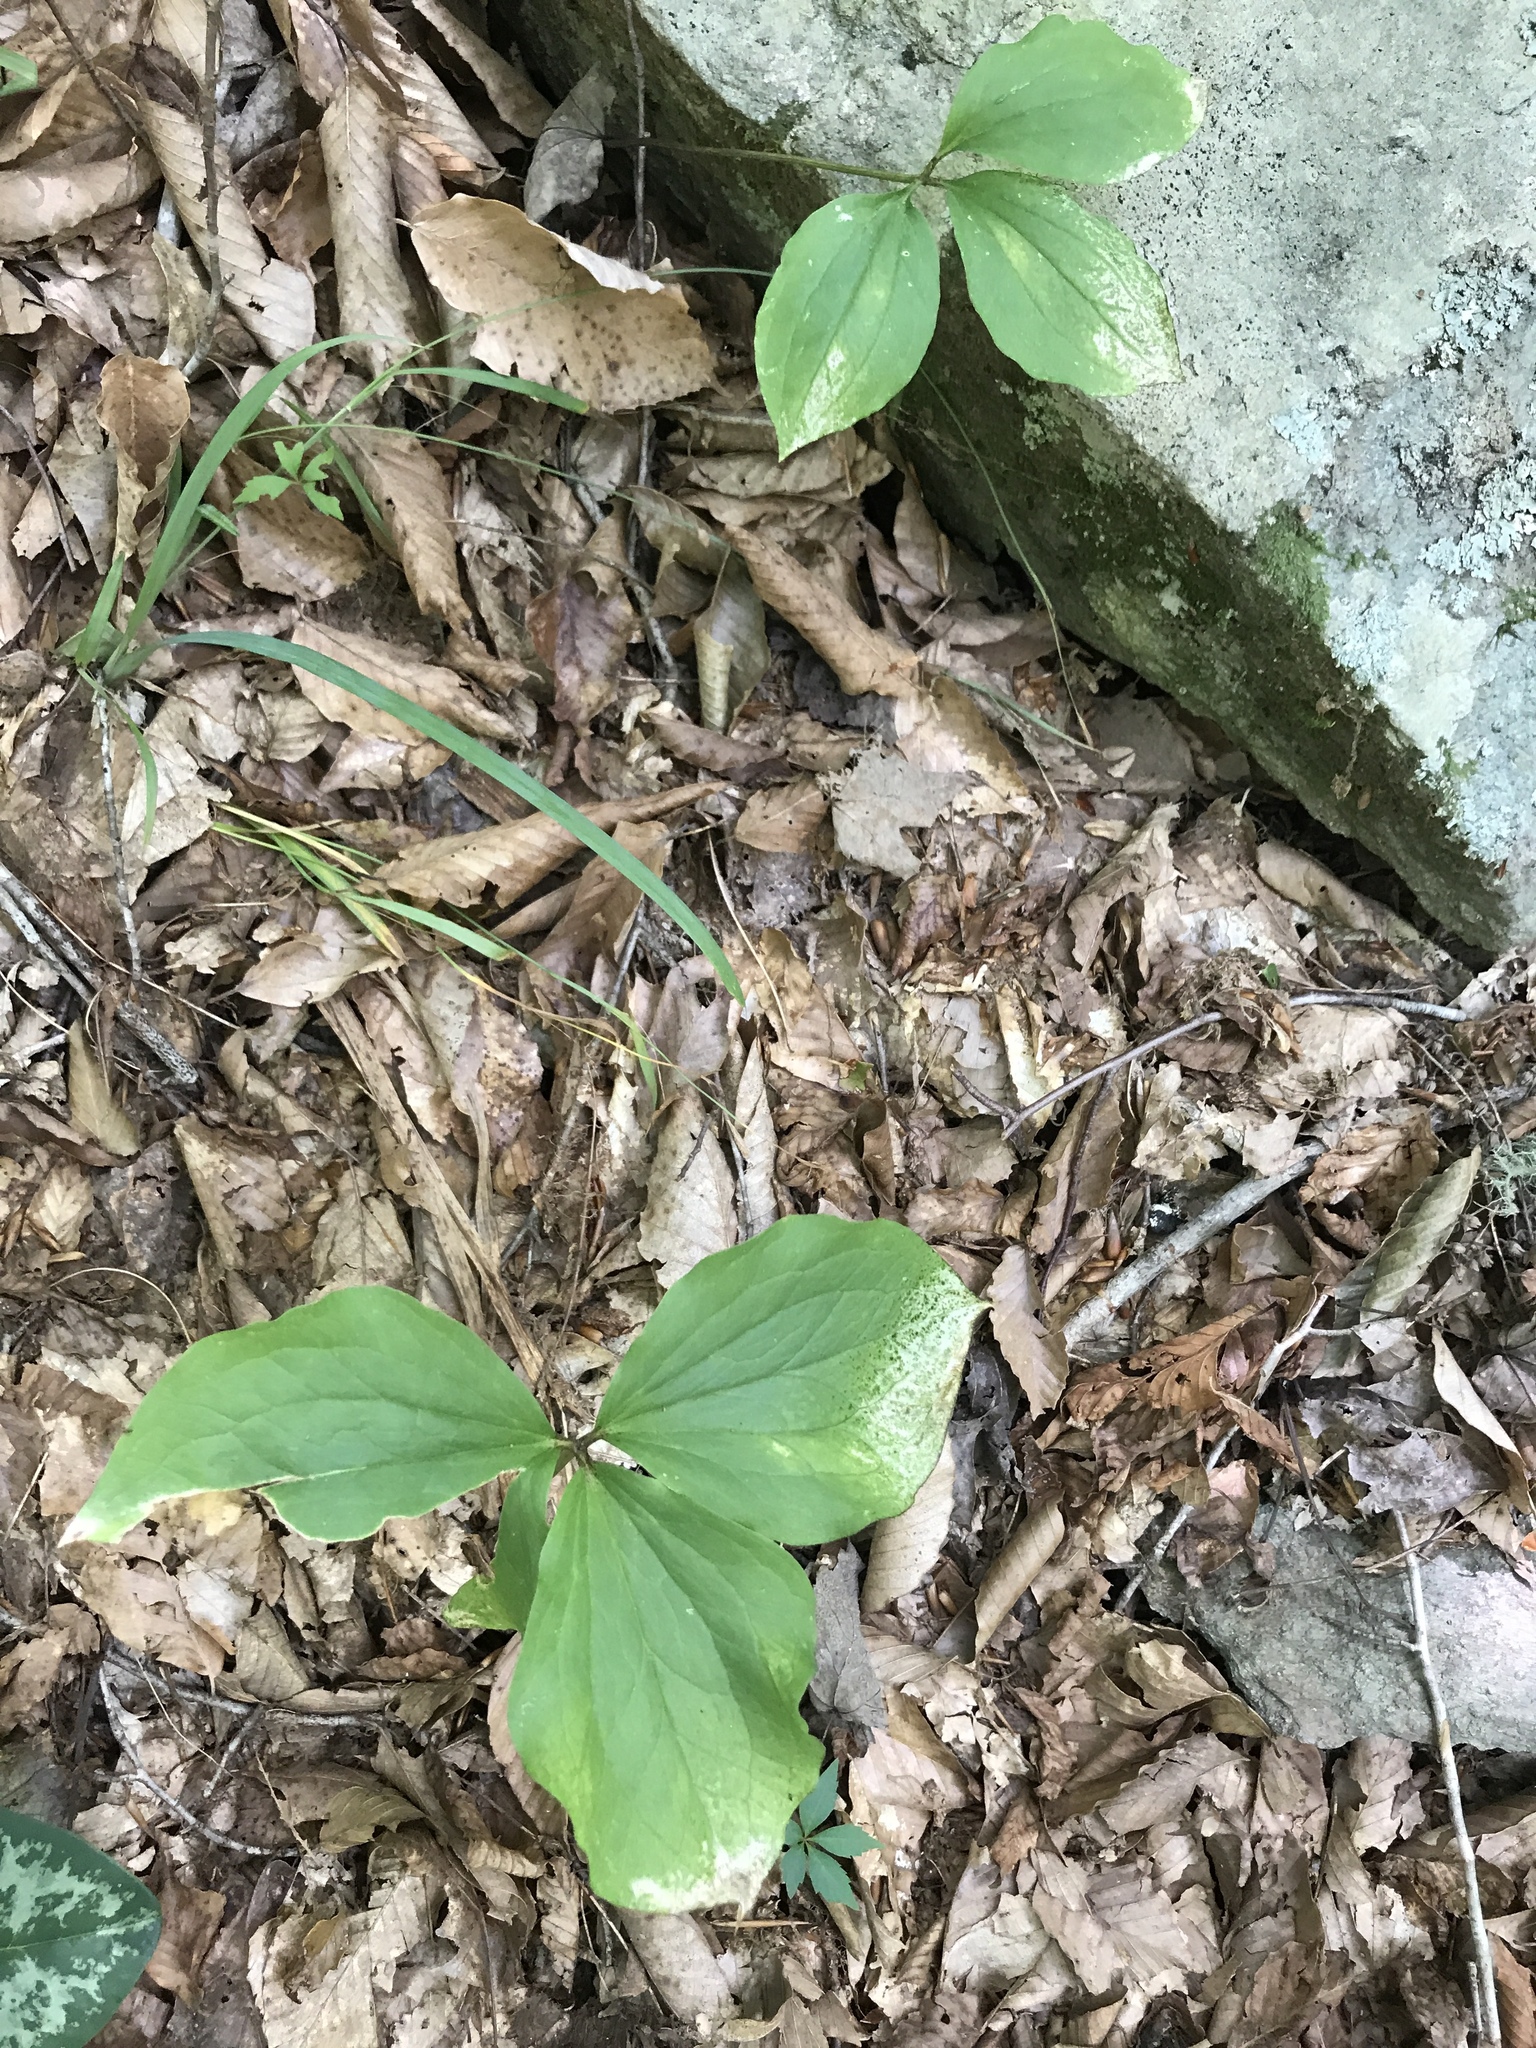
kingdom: Plantae
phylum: Tracheophyta
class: Liliopsida
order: Liliales
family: Melanthiaceae
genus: Trillium
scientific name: Trillium catesbaei
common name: Bashful trillium
